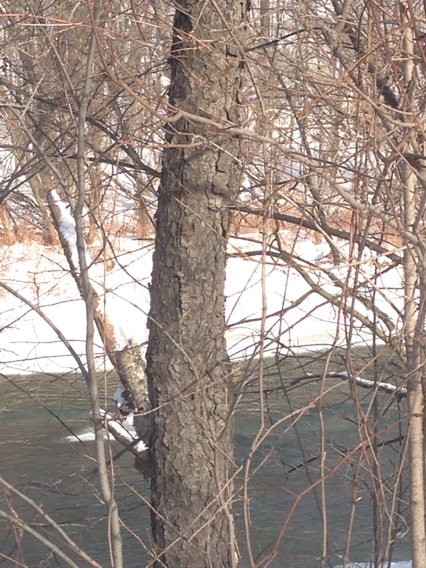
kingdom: Plantae
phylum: Tracheophyta
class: Magnoliopsida
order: Rosales
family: Rosaceae
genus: Prunus
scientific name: Prunus serotina
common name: Black cherry
